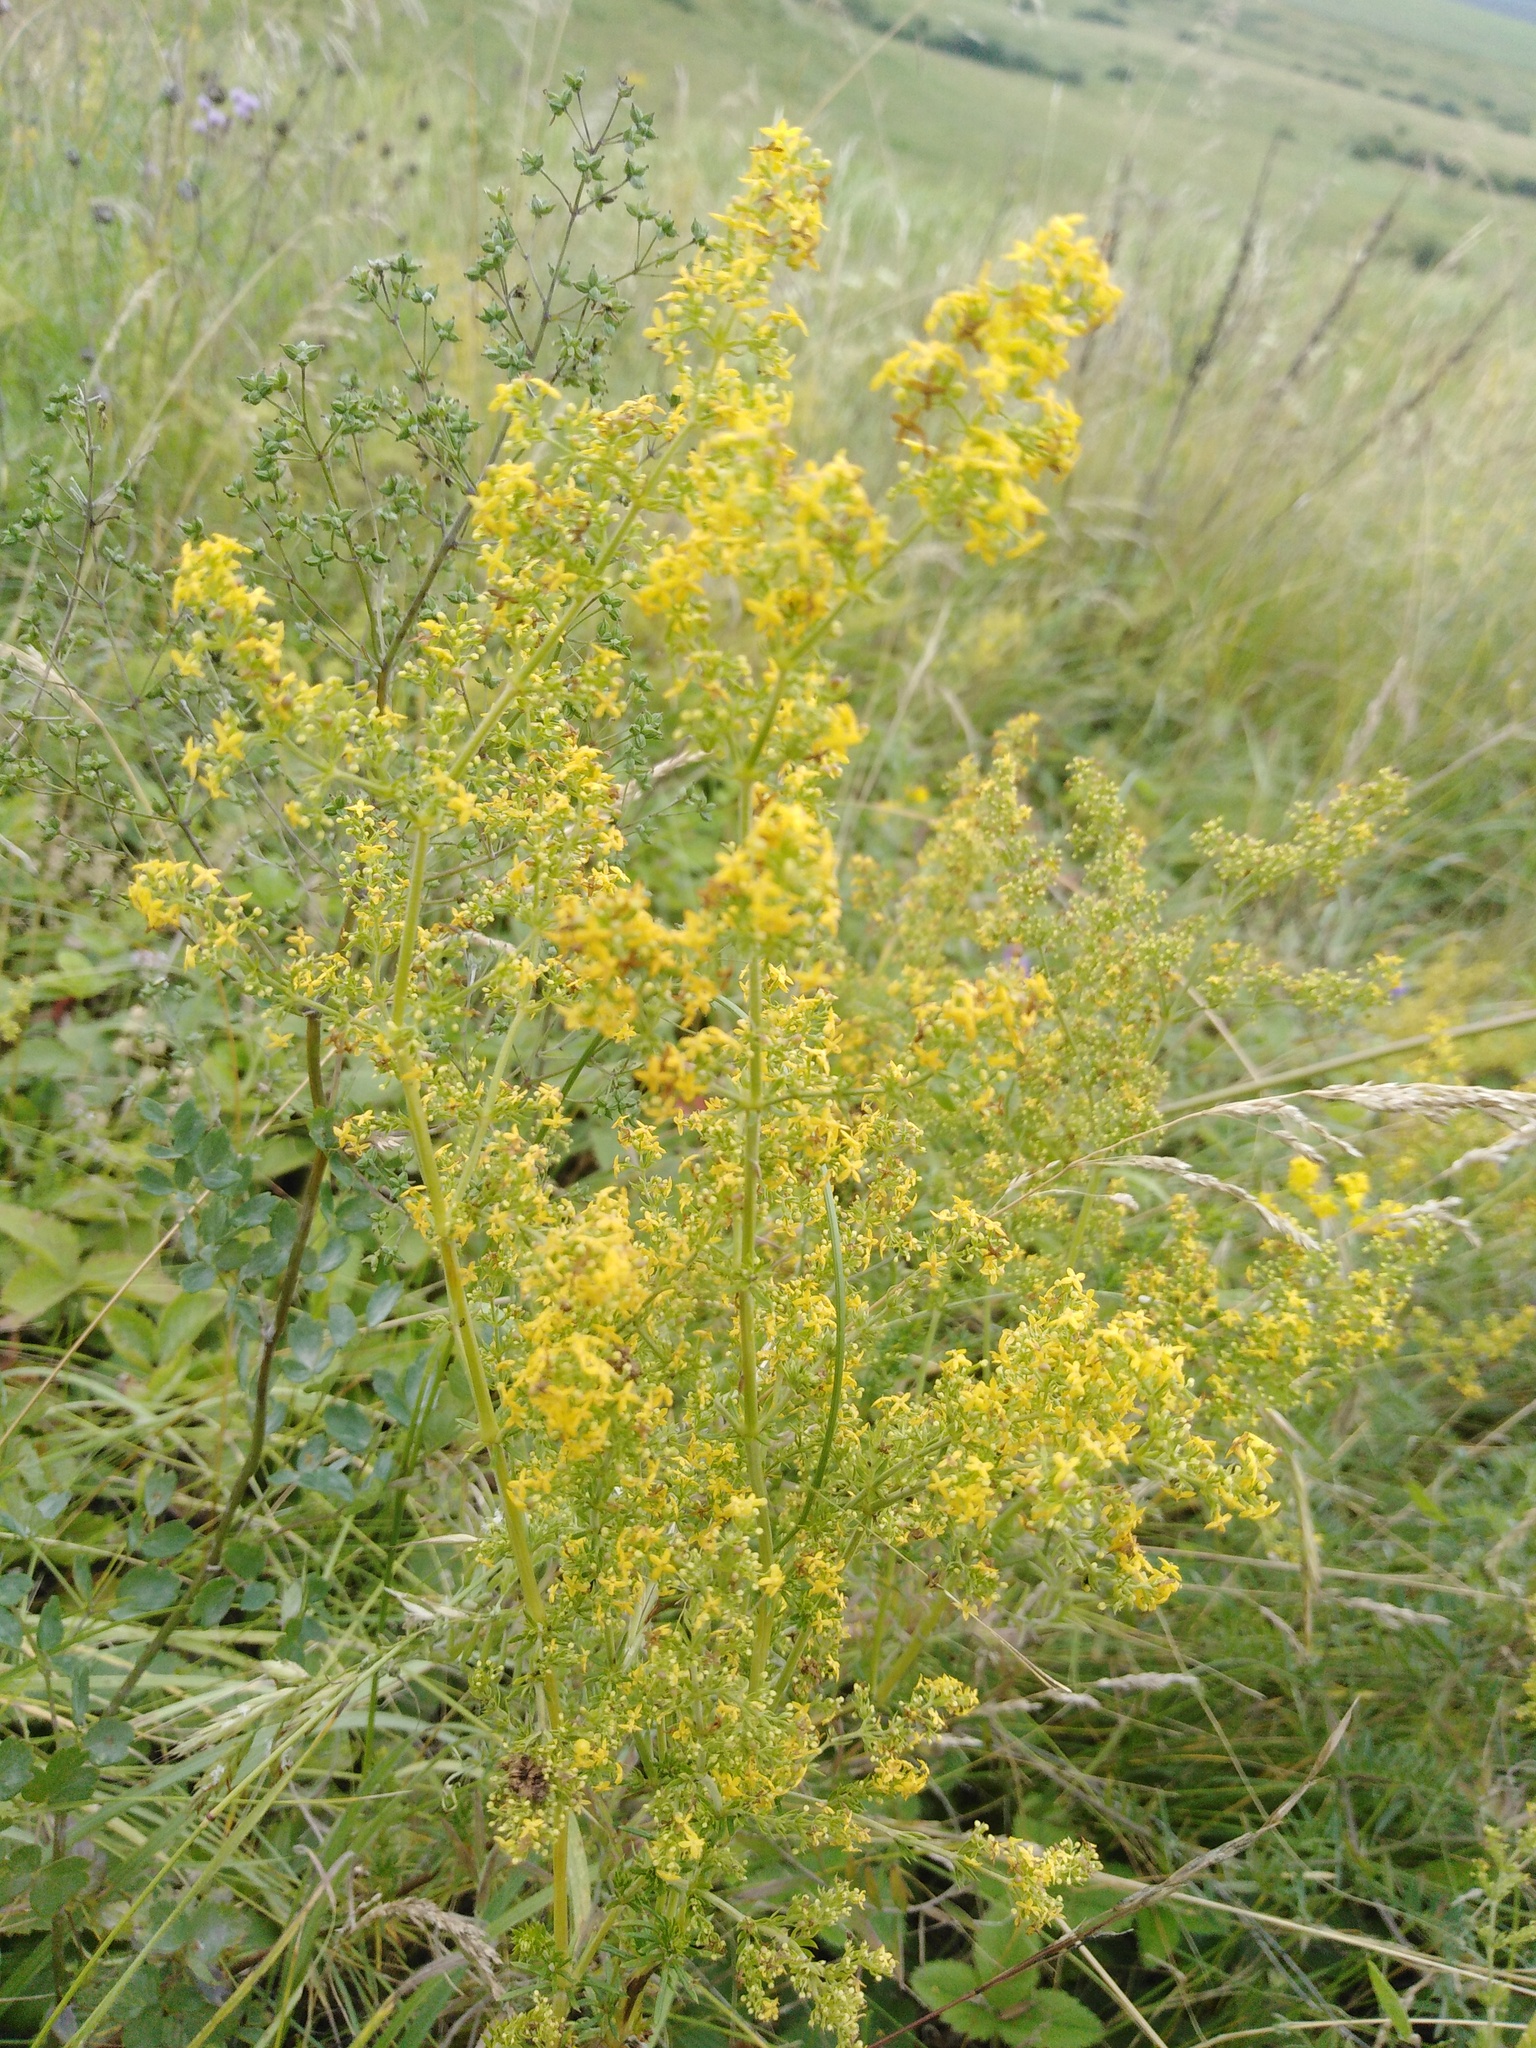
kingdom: Plantae
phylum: Tracheophyta
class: Magnoliopsida
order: Gentianales
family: Rubiaceae
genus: Galium
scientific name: Galium verum
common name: Lady's bedstraw
